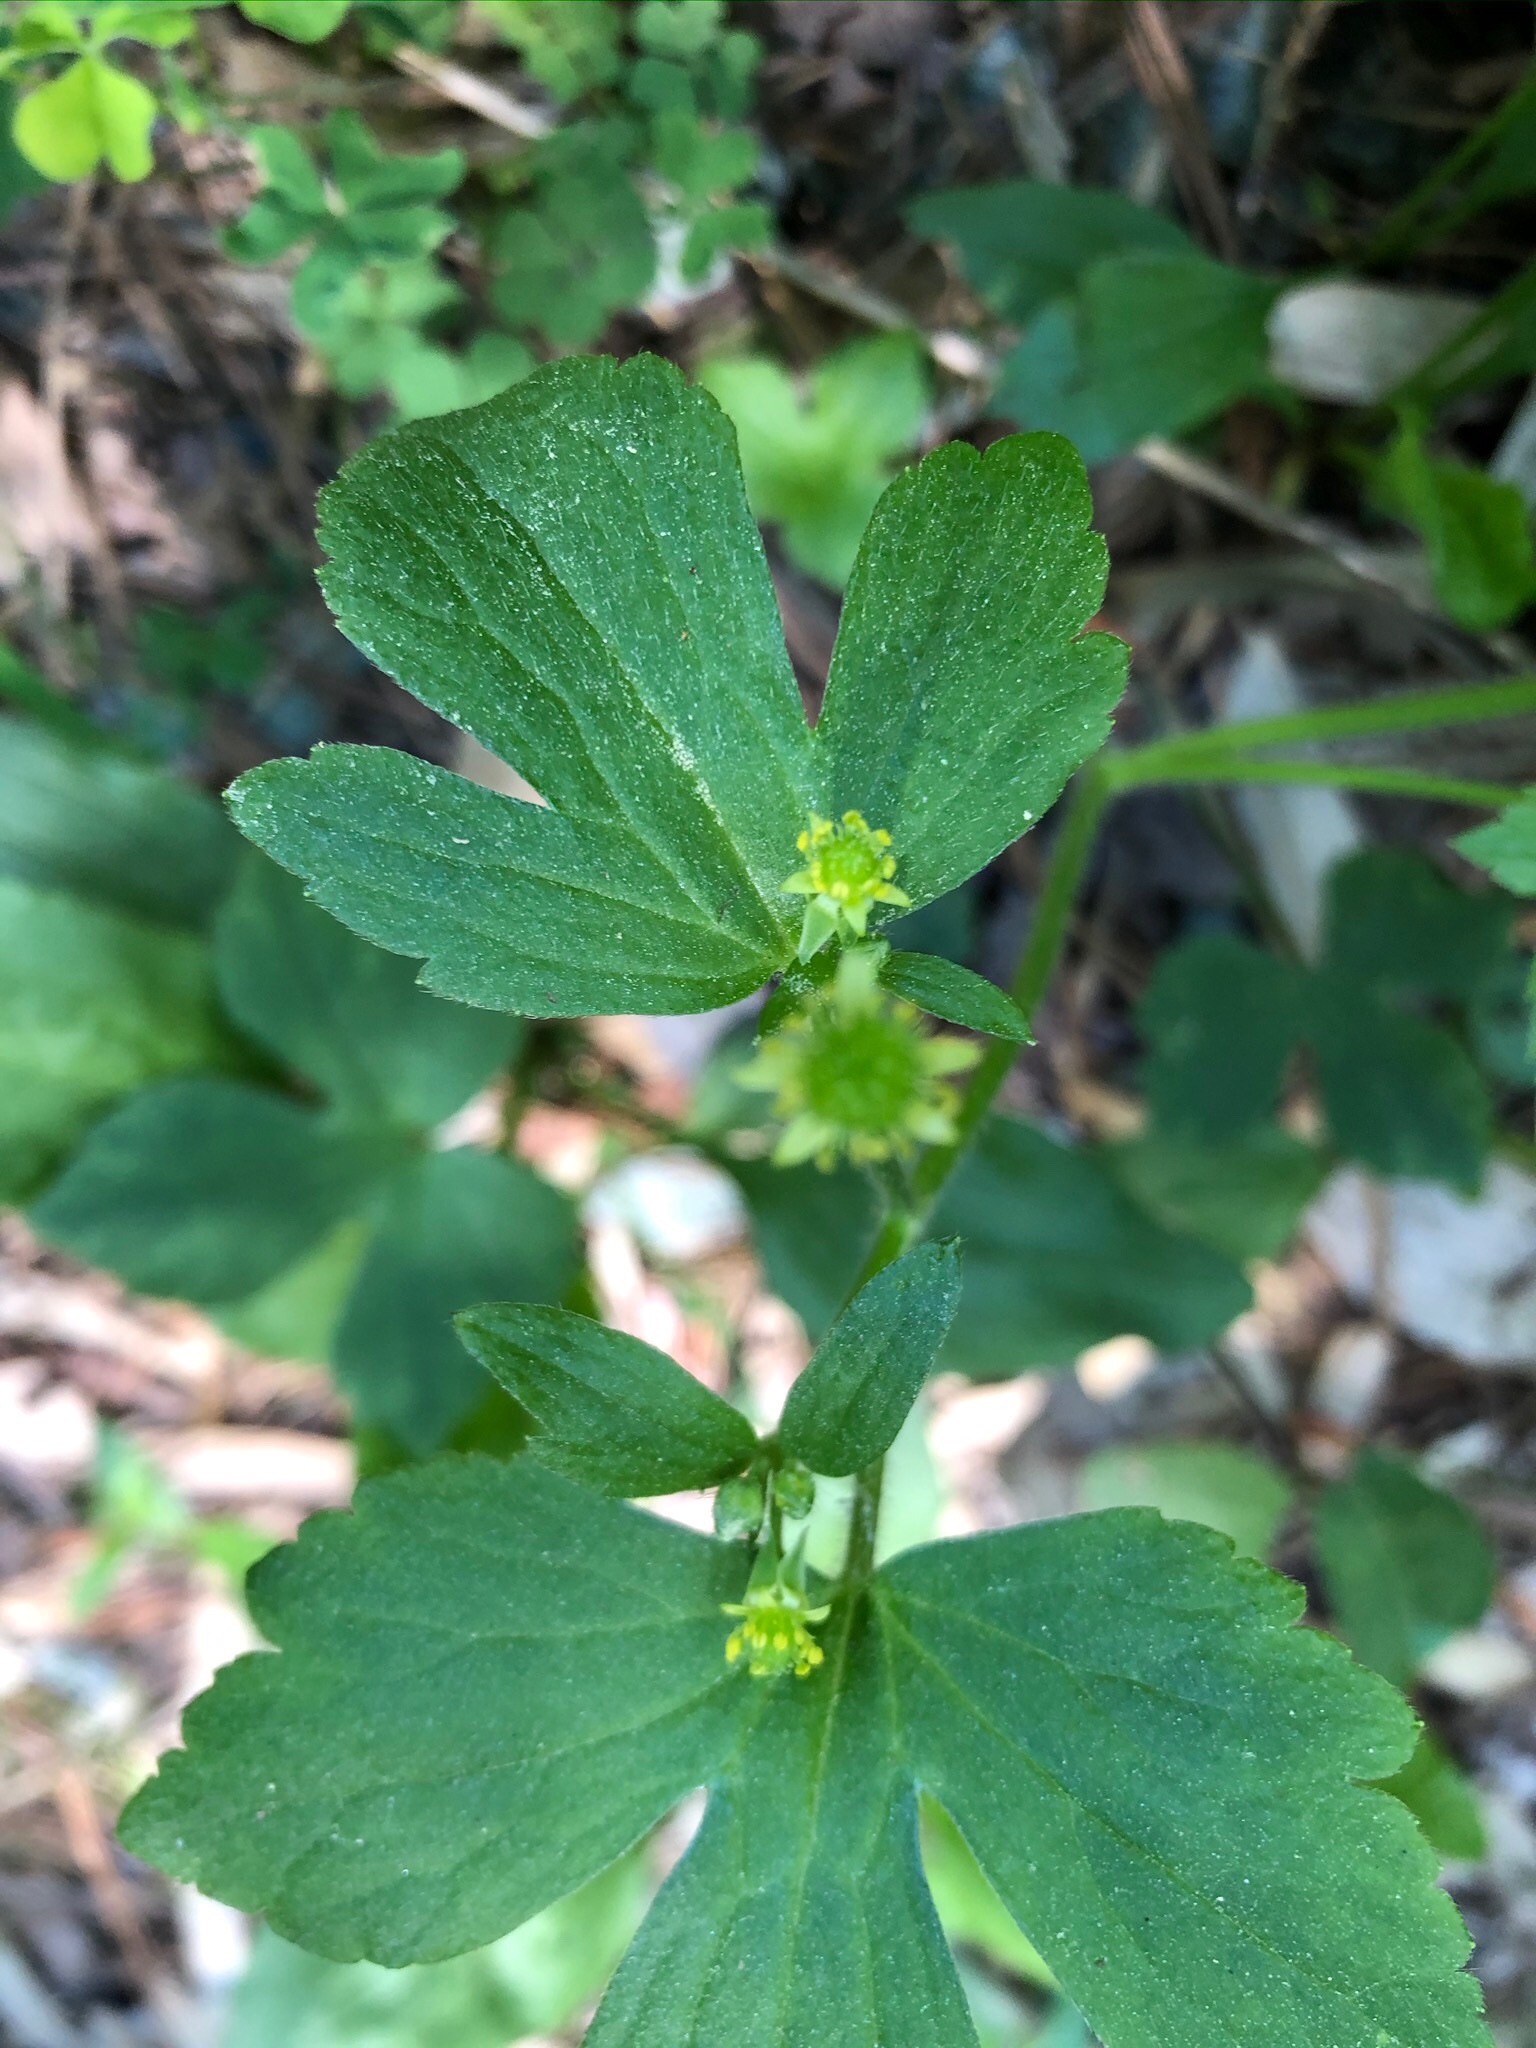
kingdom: Plantae
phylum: Tracheophyta
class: Magnoliopsida
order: Ranunculales
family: Ranunculaceae
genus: Ranunculus
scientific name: Ranunculus recurvatus
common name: Blisterwort
